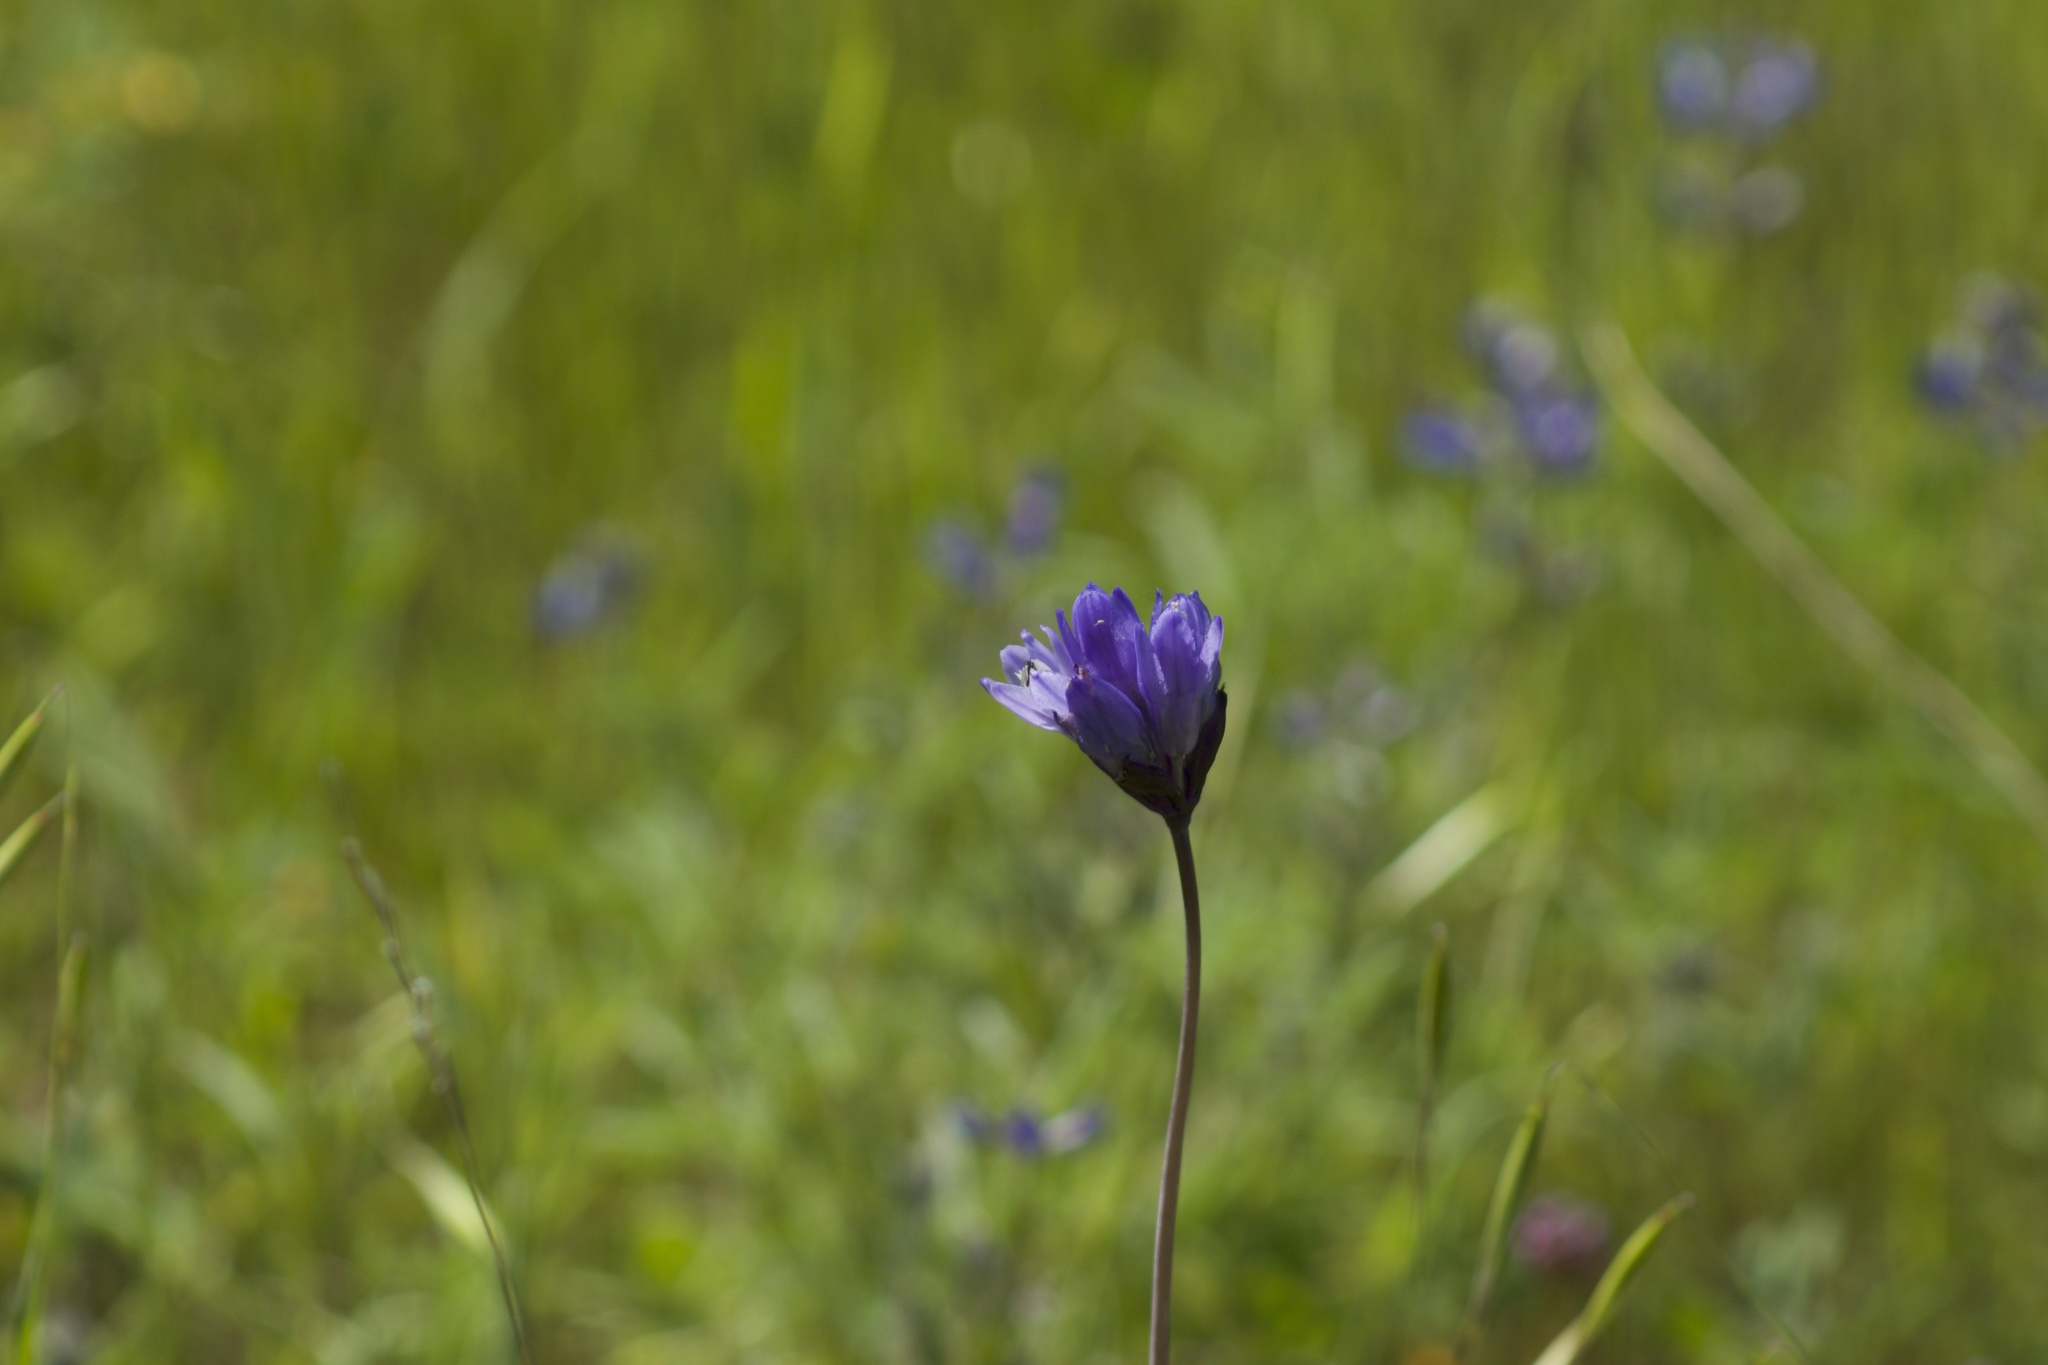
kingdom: Plantae
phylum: Tracheophyta
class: Liliopsida
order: Asparagales
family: Asparagaceae
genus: Dipterostemon
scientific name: Dipterostemon capitatus
